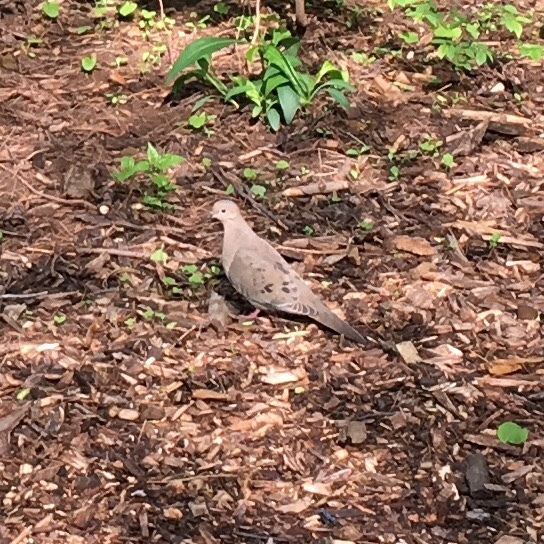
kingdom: Animalia
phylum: Chordata
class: Aves
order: Columbiformes
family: Columbidae
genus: Zenaida
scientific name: Zenaida macroura
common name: Mourning dove
